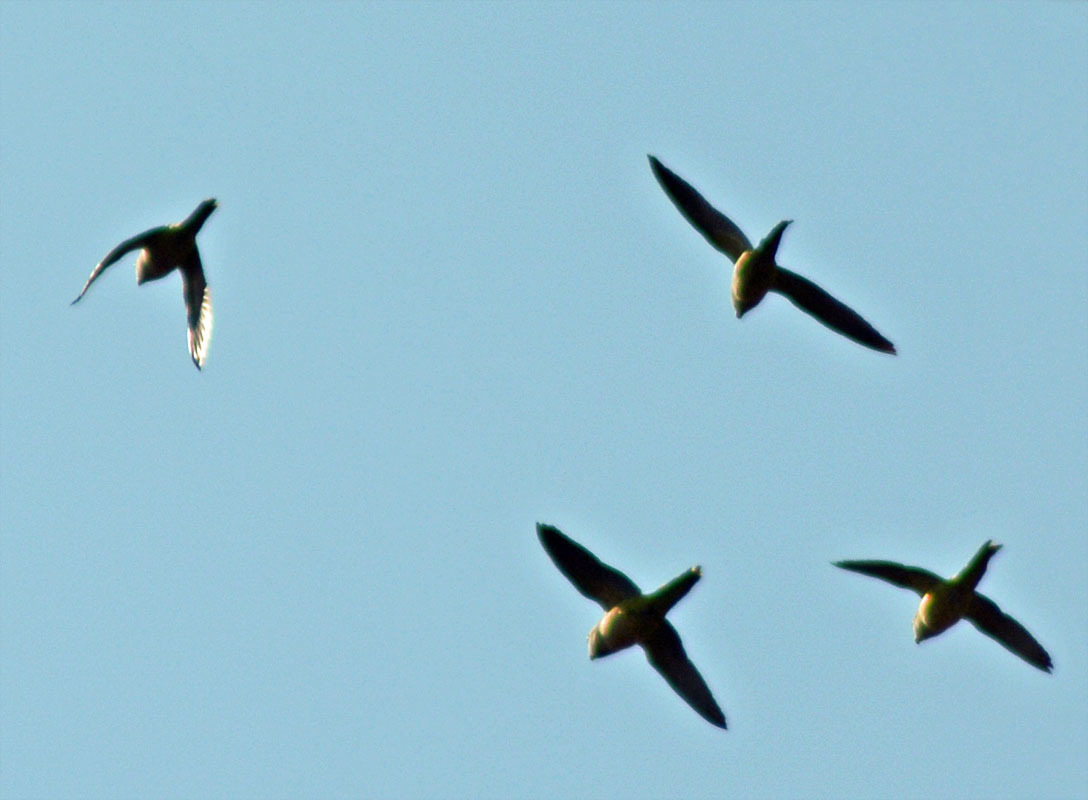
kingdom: Animalia
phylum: Chordata
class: Aves
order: Psittaciformes
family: Psittacidae
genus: Myiopsitta
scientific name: Myiopsitta monachus
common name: Monk parakeet
